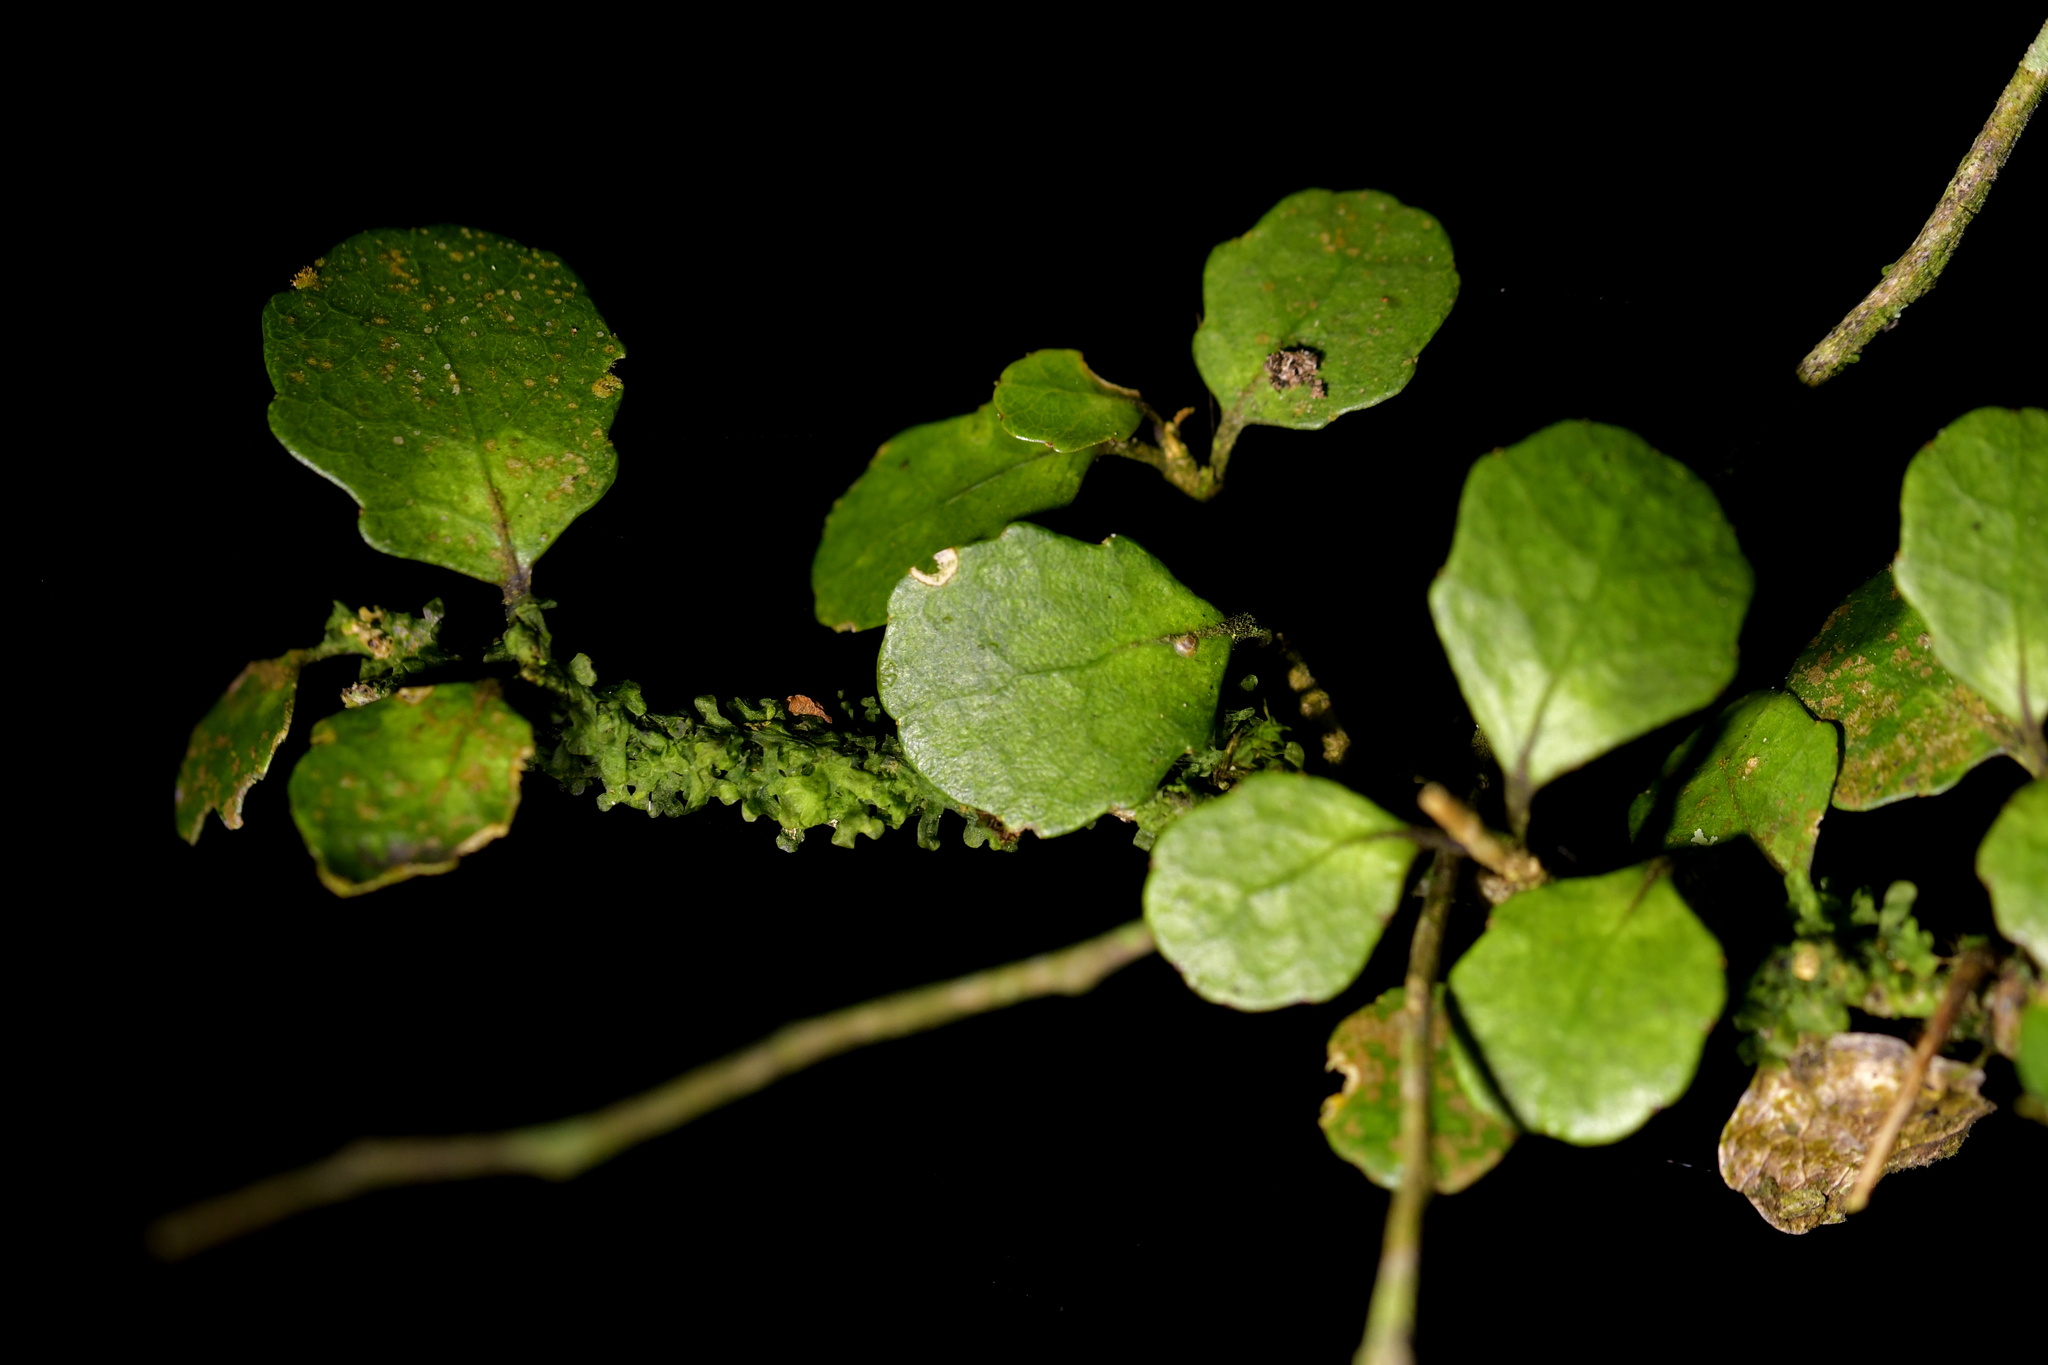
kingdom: Plantae
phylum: Tracheophyta
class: Magnoliopsida
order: Malpighiales
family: Violaceae
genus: Melicytus
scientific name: Melicytus micranthus
